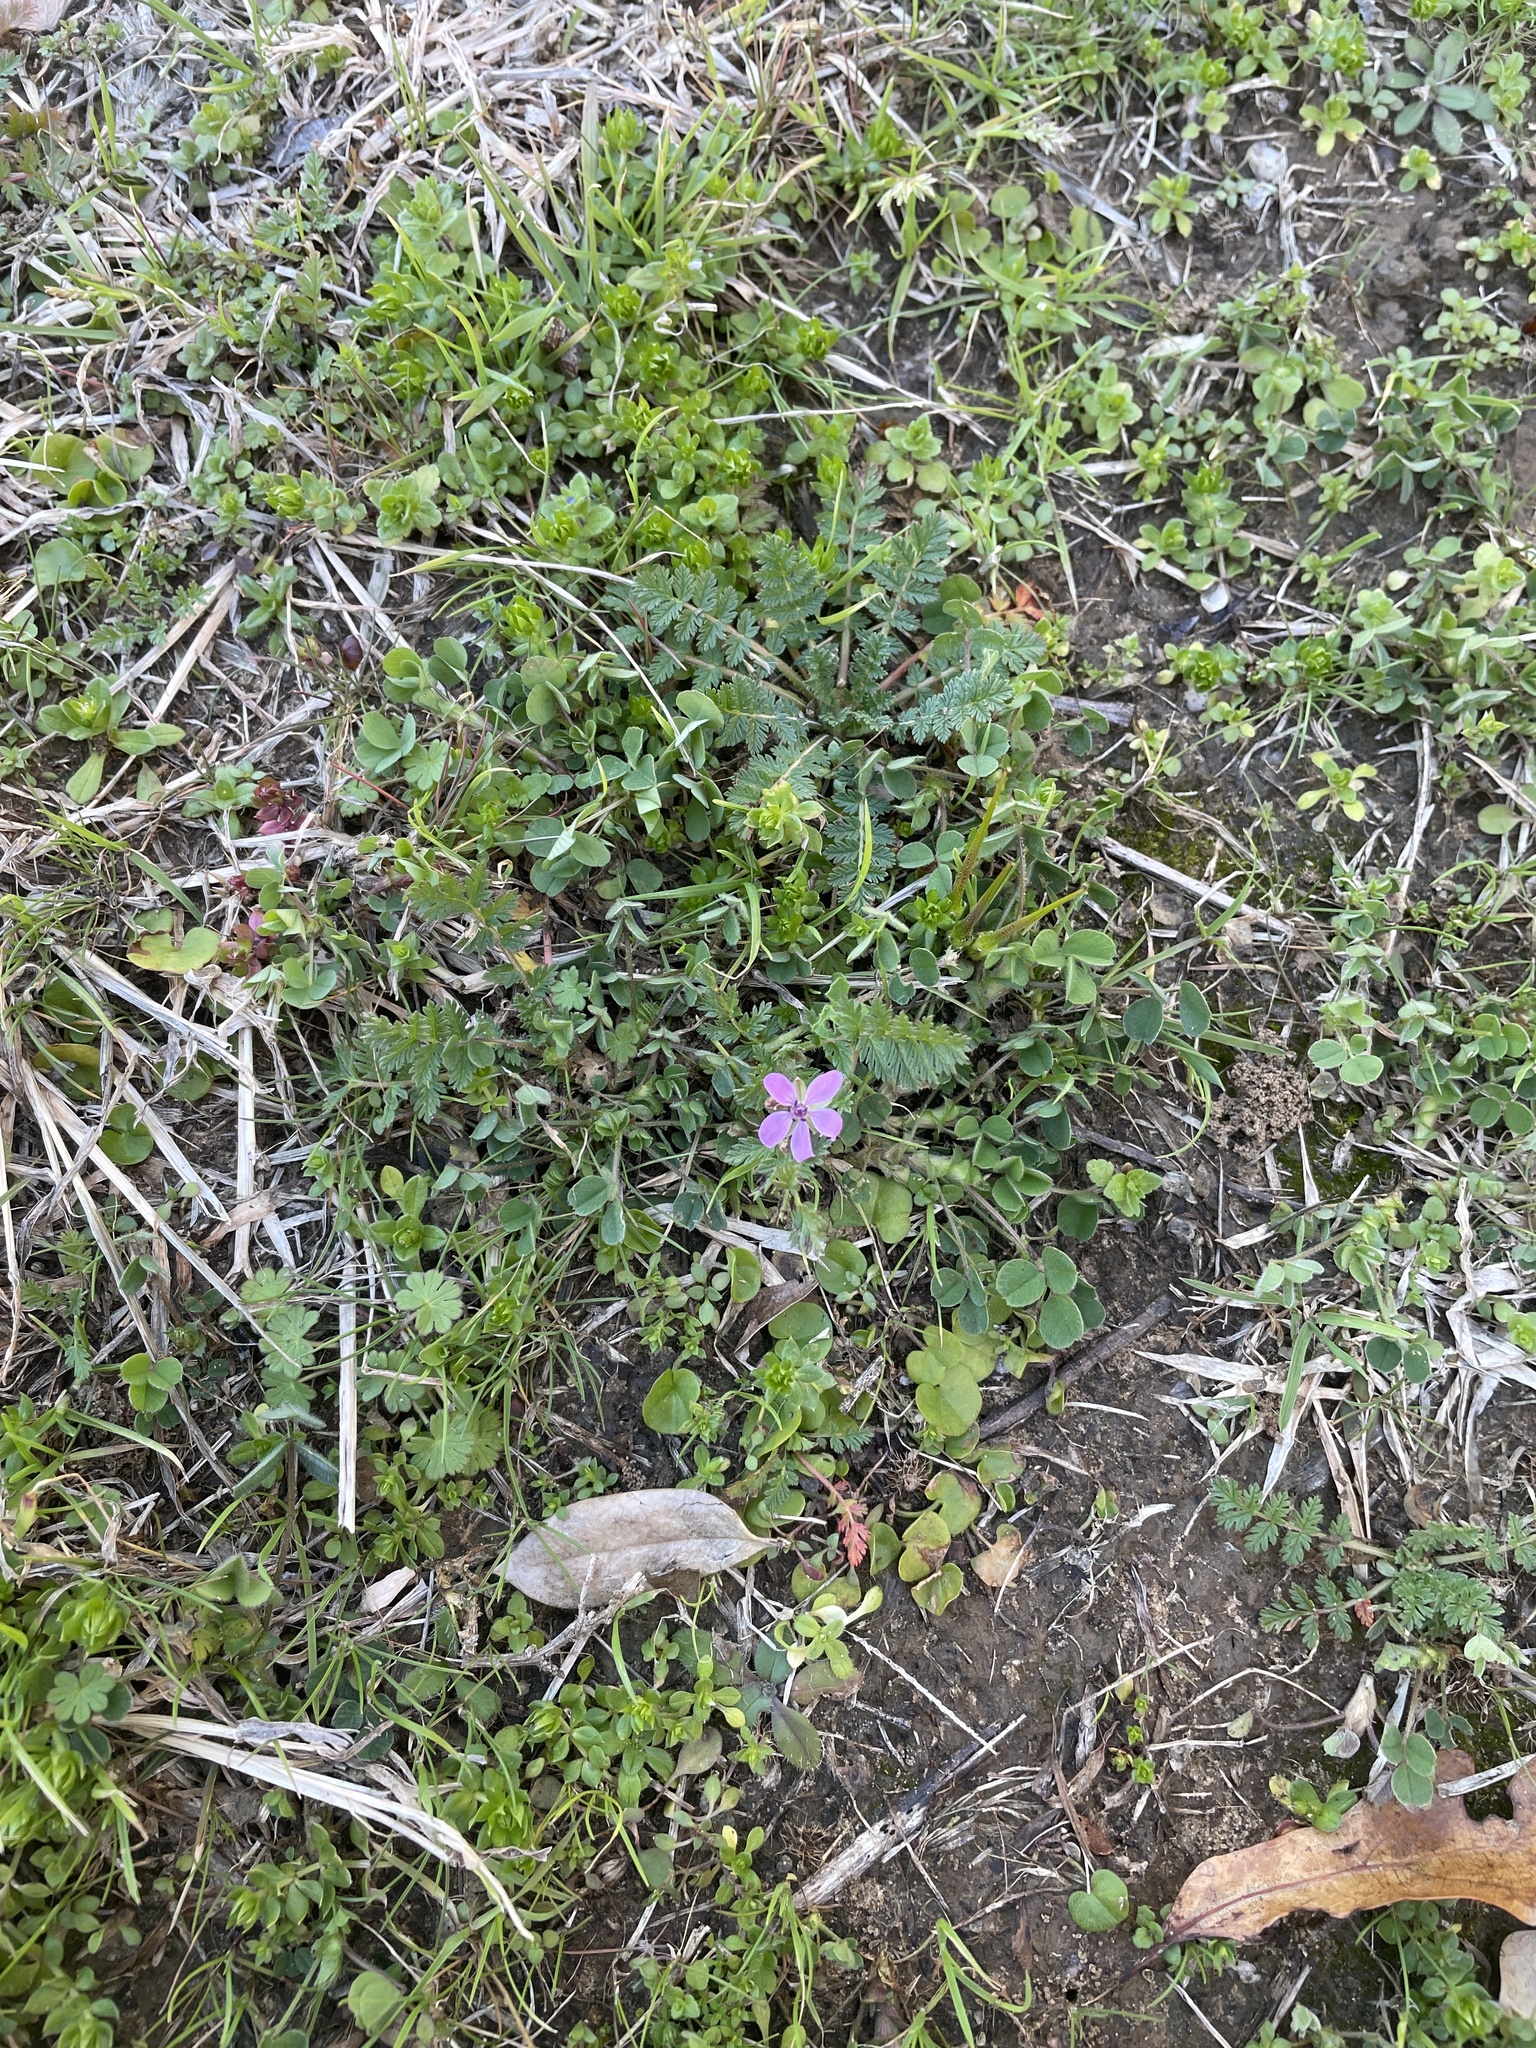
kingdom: Plantae
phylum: Tracheophyta
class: Magnoliopsida
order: Geraniales
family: Geraniaceae
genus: Erodium
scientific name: Erodium cicutarium
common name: Common stork's-bill
